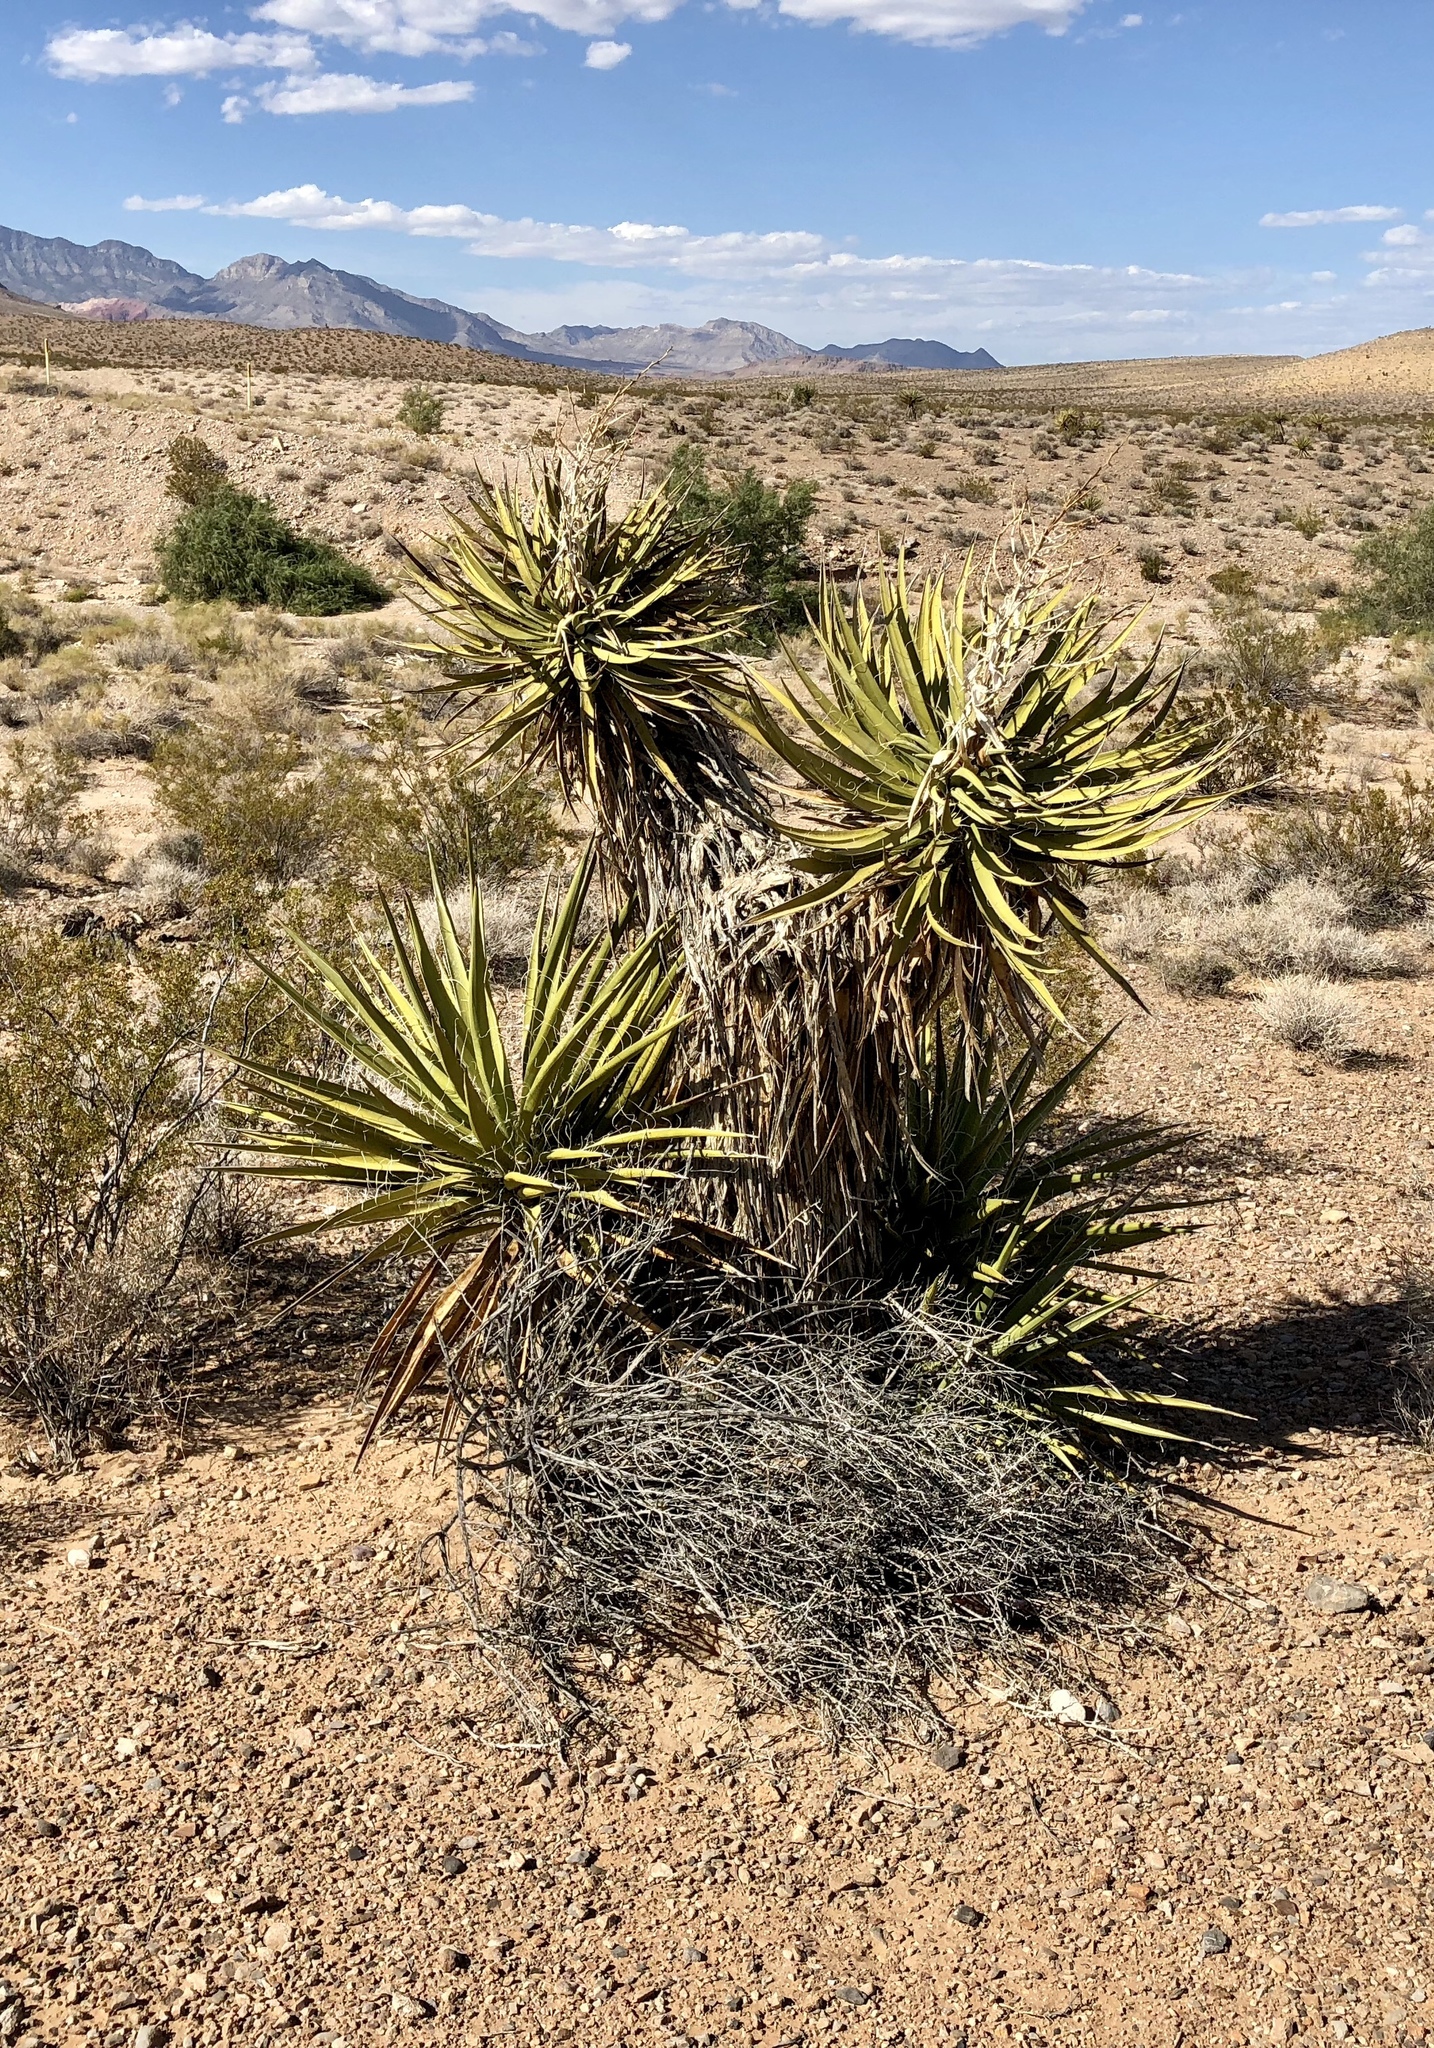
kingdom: Plantae
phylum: Tracheophyta
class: Liliopsida
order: Asparagales
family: Asparagaceae
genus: Yucca
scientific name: Yucca schidigera
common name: Mojave yucca
